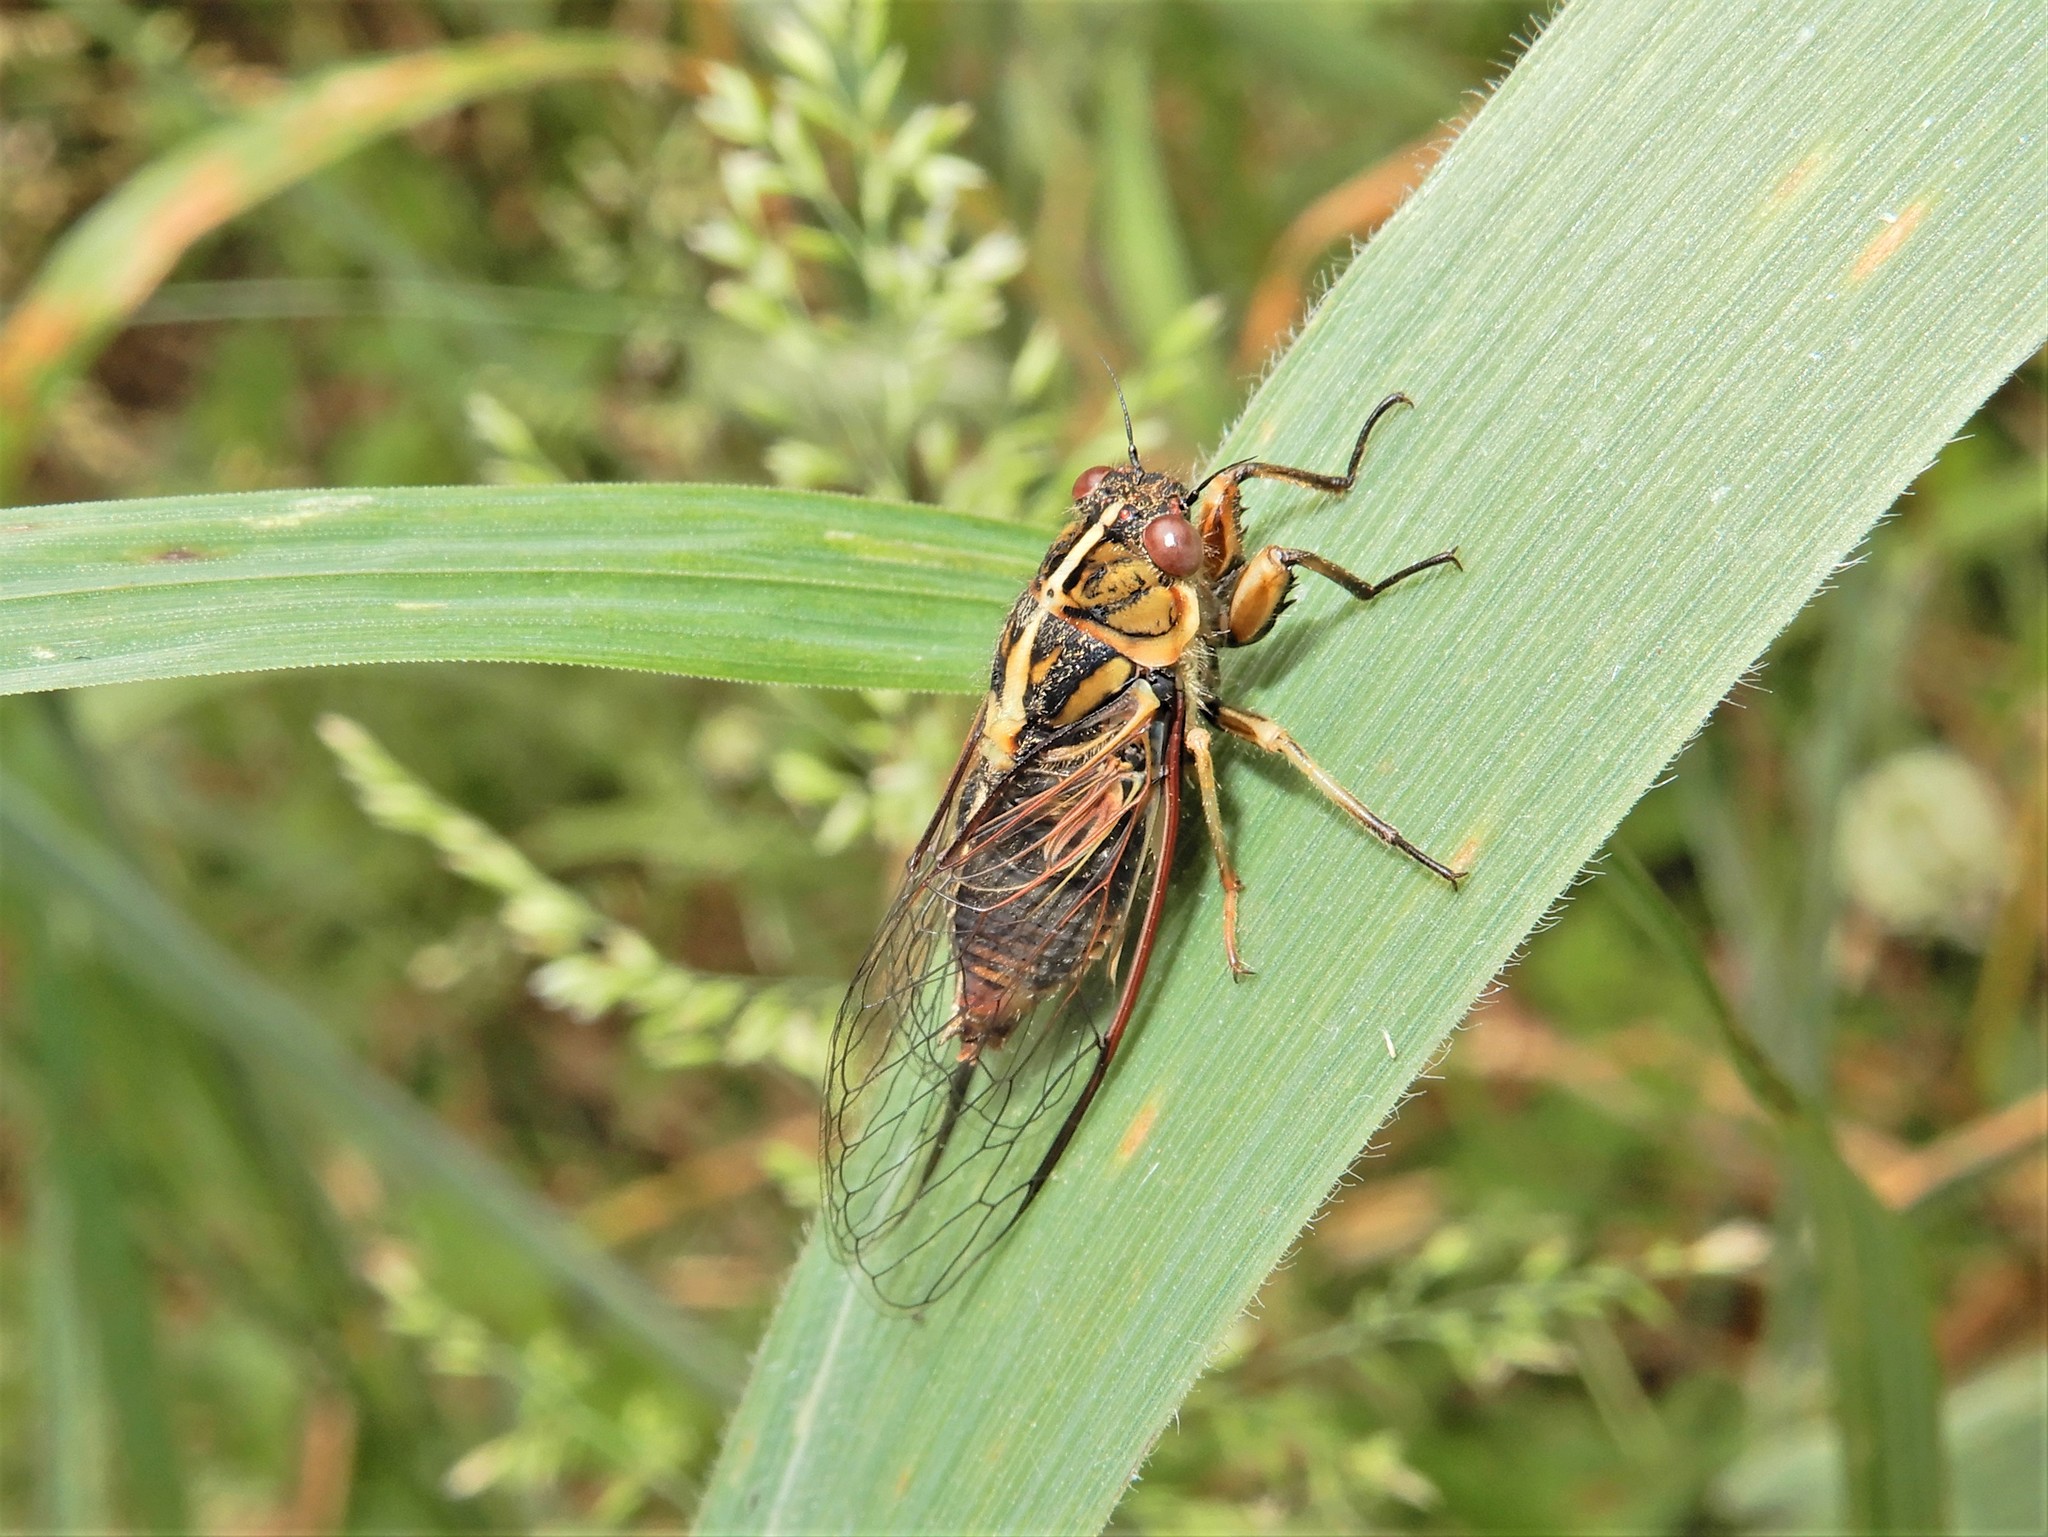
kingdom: Animalia
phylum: Arthropoda
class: Insecta
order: Hemiptera
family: Cicadidae
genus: Kikihia
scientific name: Kikihia muta
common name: Variable cicada
